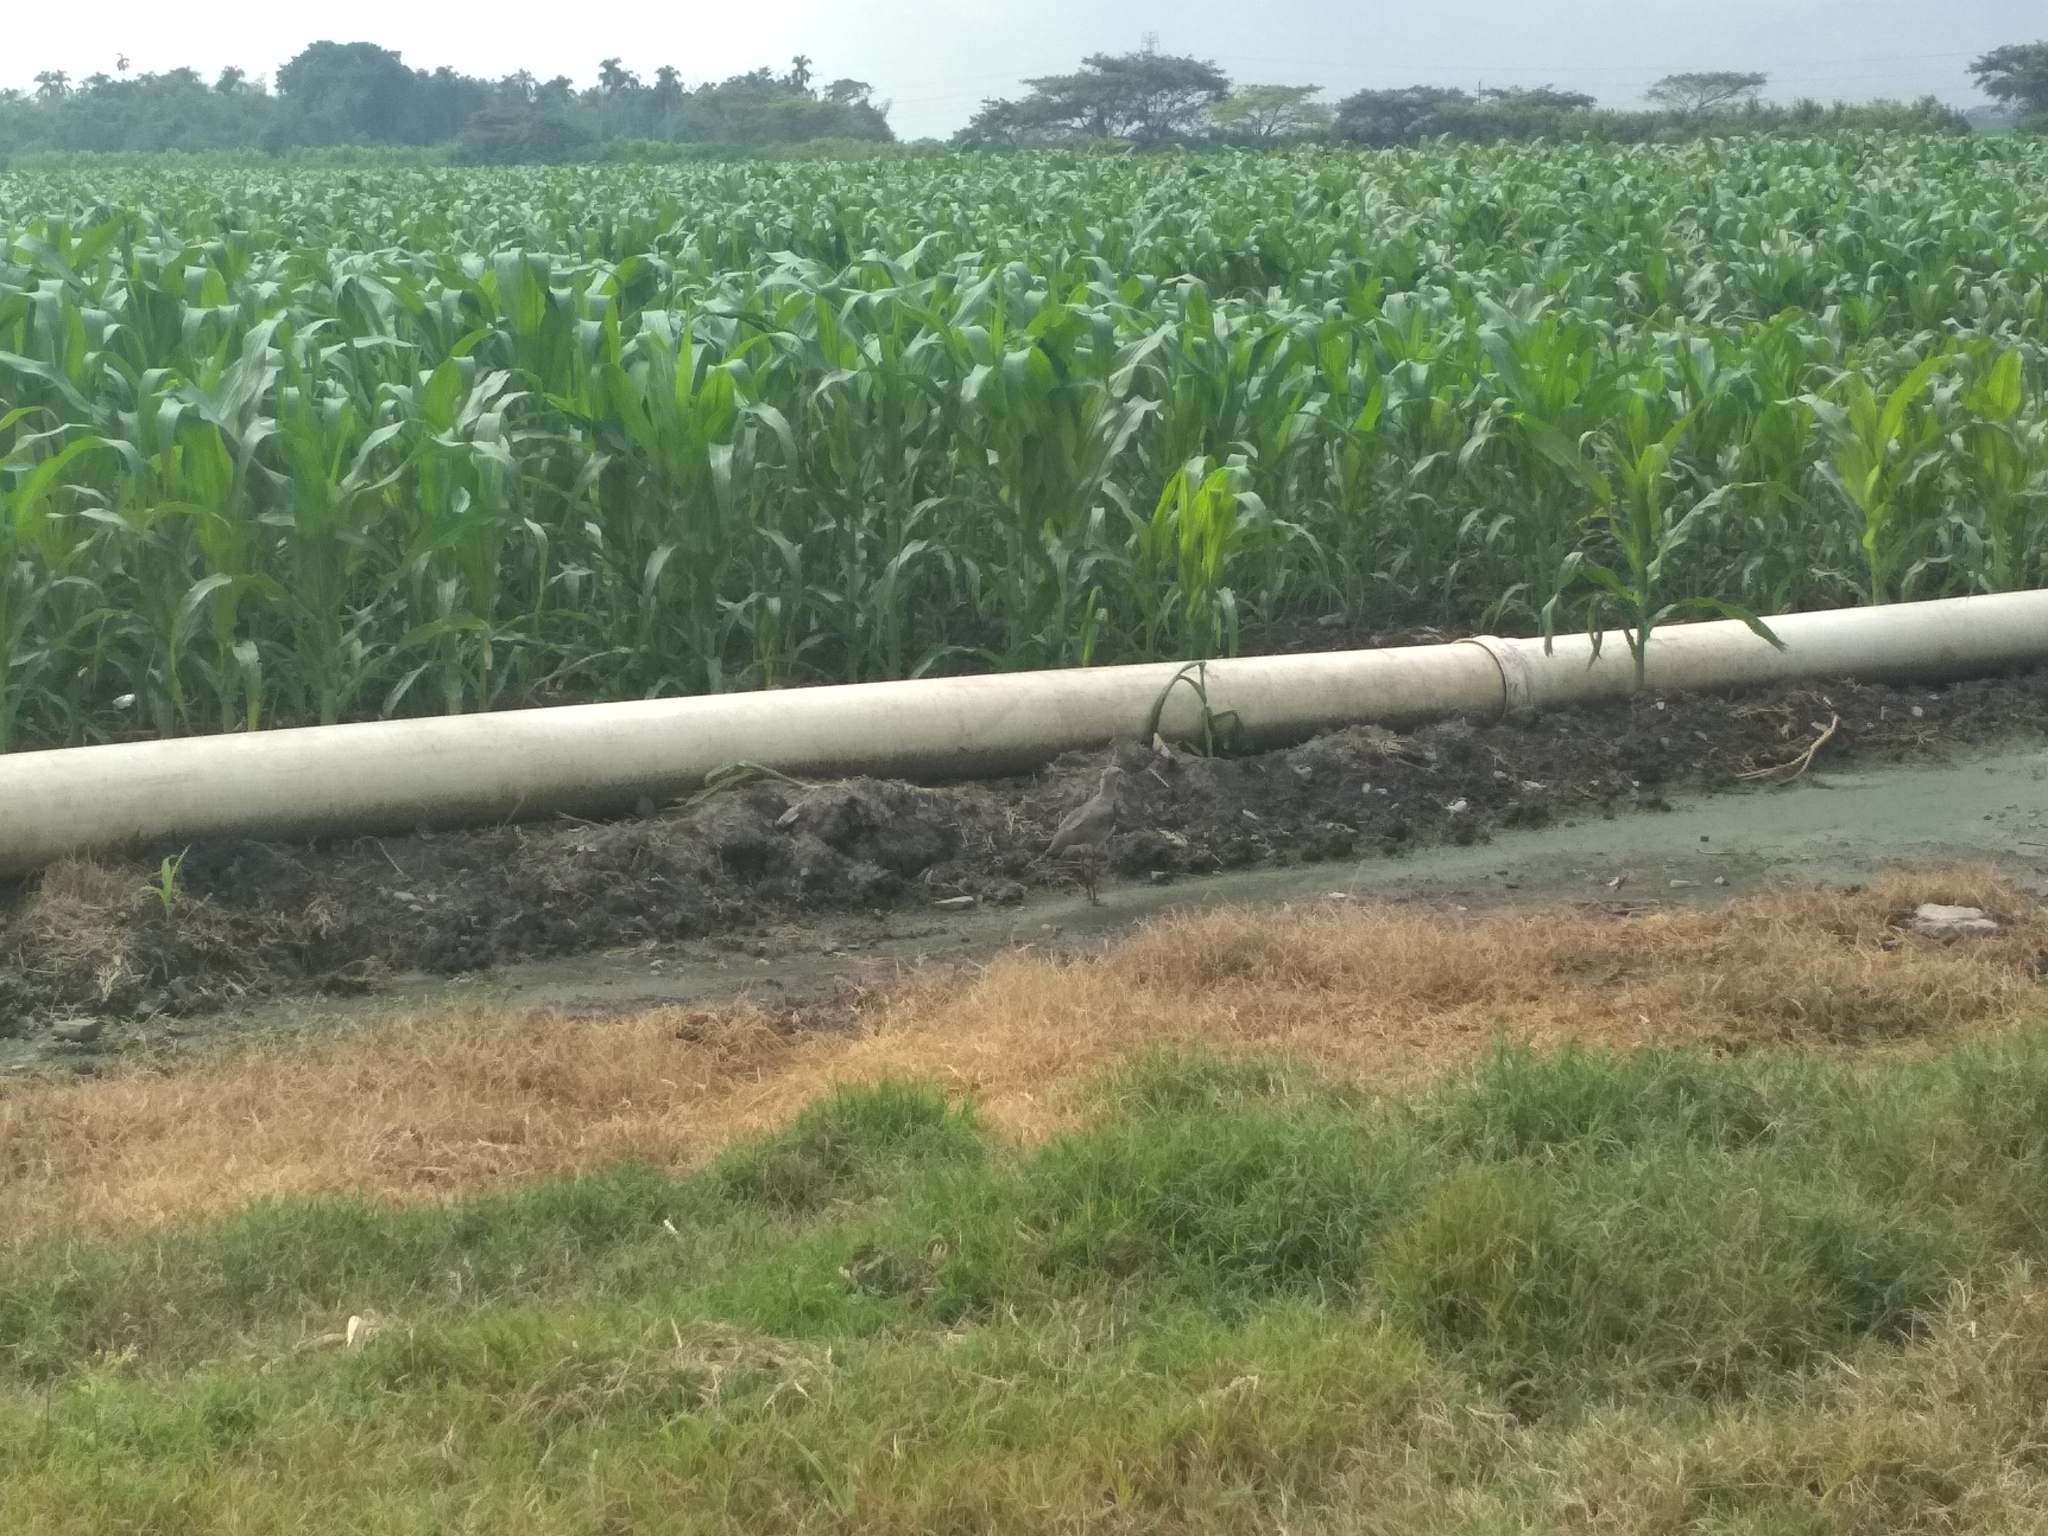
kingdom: Animalia
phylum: Chordata
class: Aves
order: Charadriiformes
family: Charadriidae
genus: Vanellus
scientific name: Vanellus chilensis
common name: Southern lapwing
